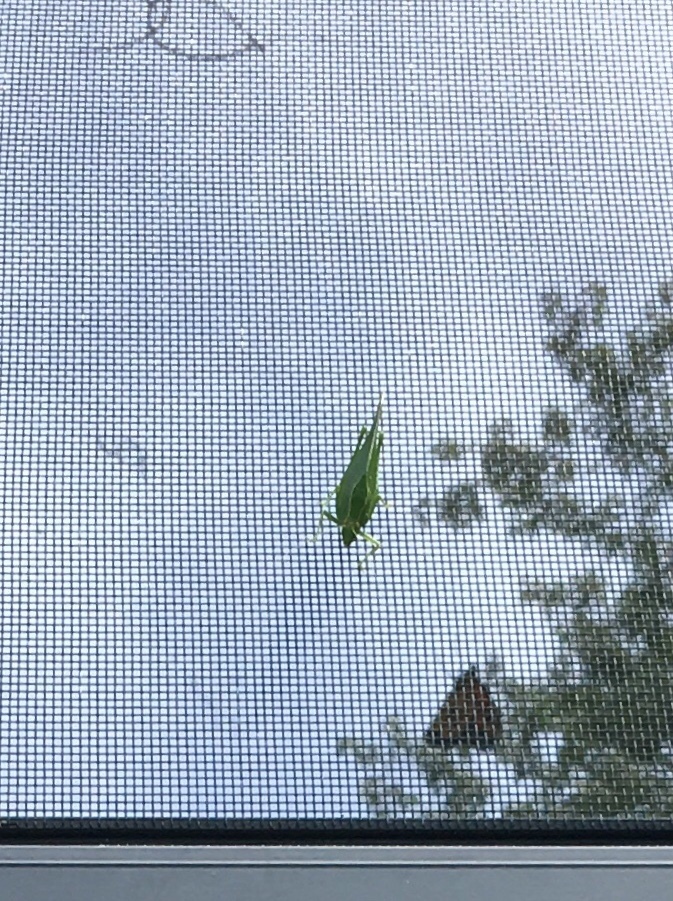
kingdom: Animalia
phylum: Arthropoda
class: Insecta
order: Orthoptera
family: Tettigoniidae
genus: Montezumina
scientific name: Montezumina modesta
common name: Modest katydid
